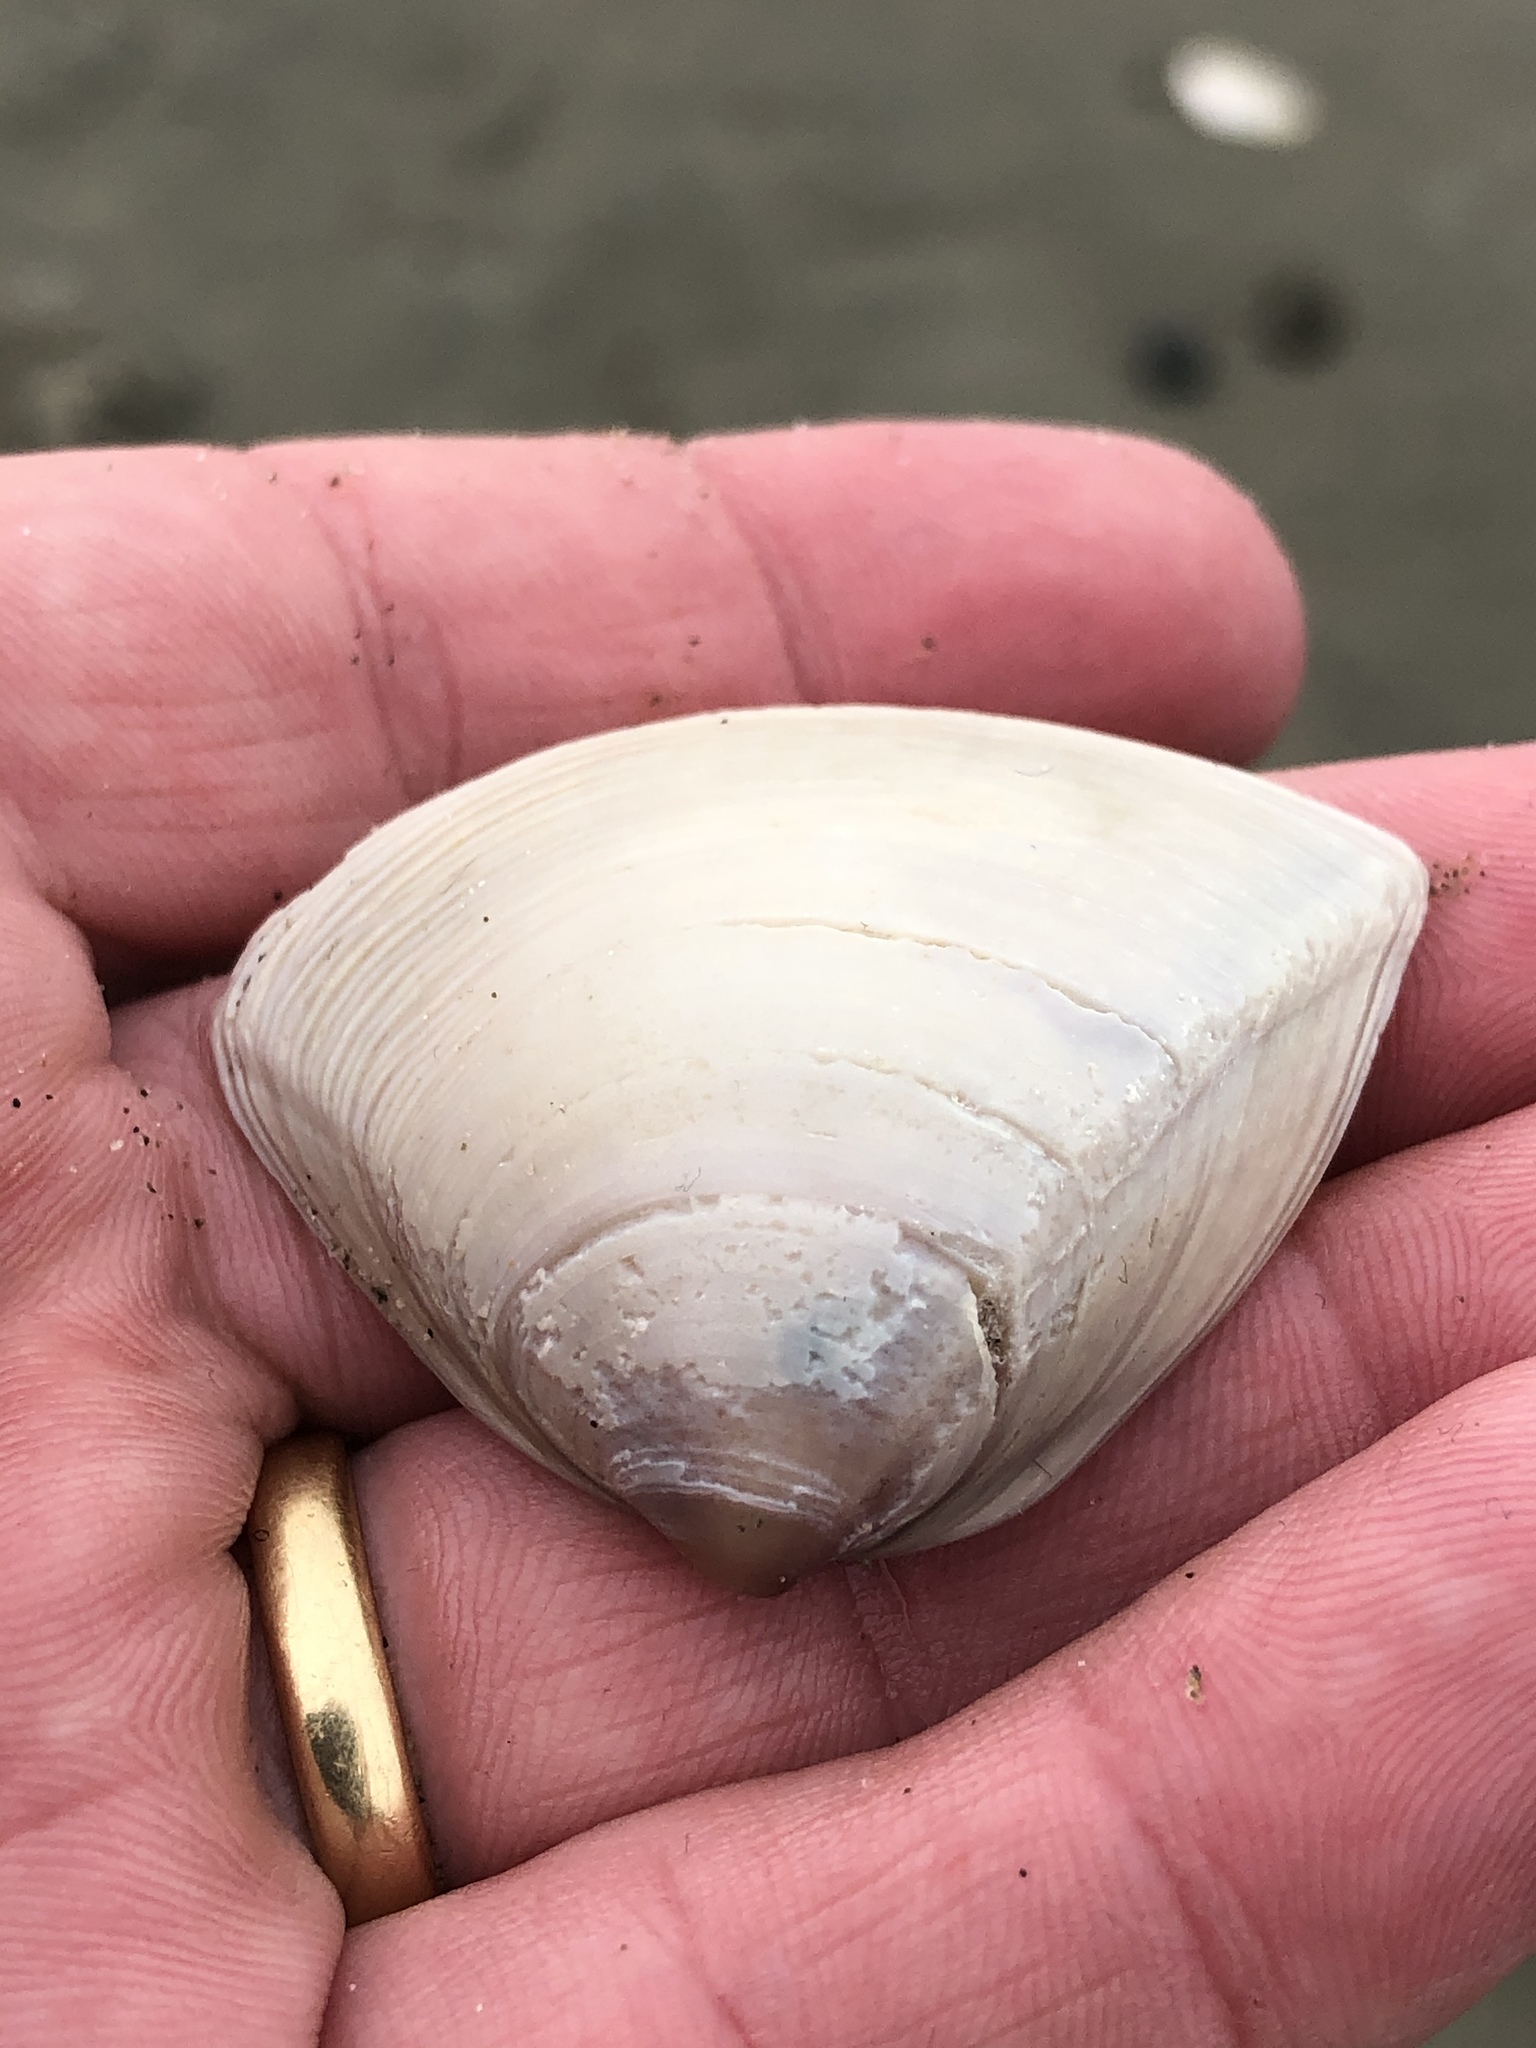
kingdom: Animalia
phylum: Mollusca
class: Bivalvia
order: Venerida
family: Mactridae
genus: Crassula
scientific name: Crassula aequilatera
